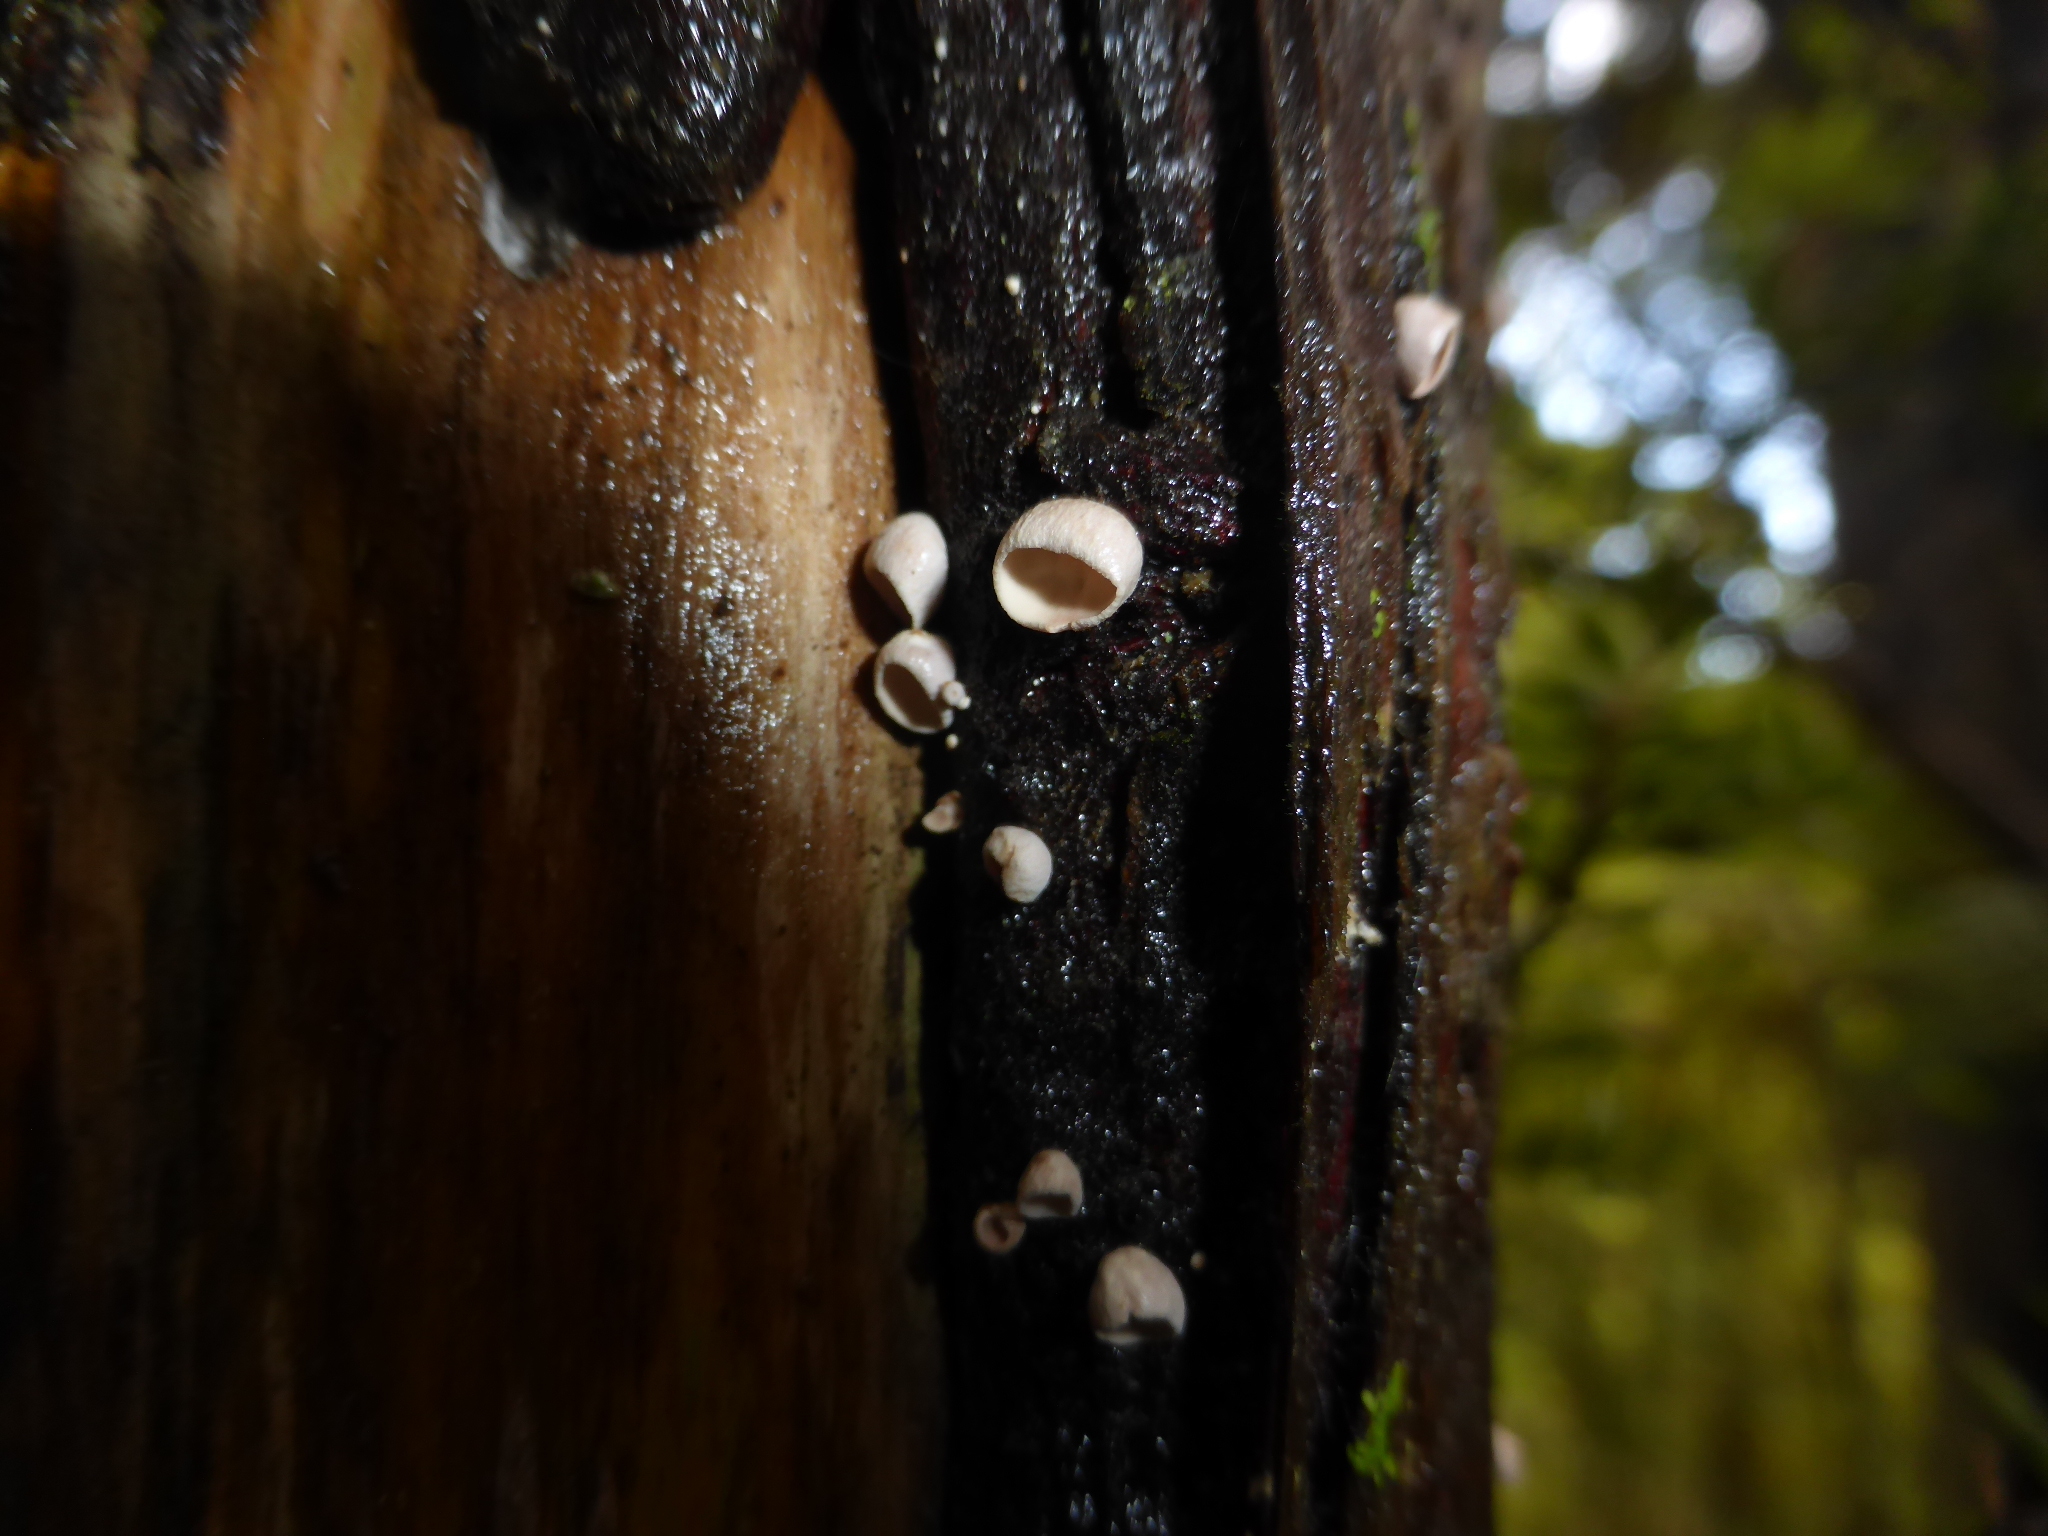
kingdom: Fungi
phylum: Basidiomycota
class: Agaricomycetes
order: Agaricales
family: Marasmiaceae
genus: Calyptella
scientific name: Calyptella totara
